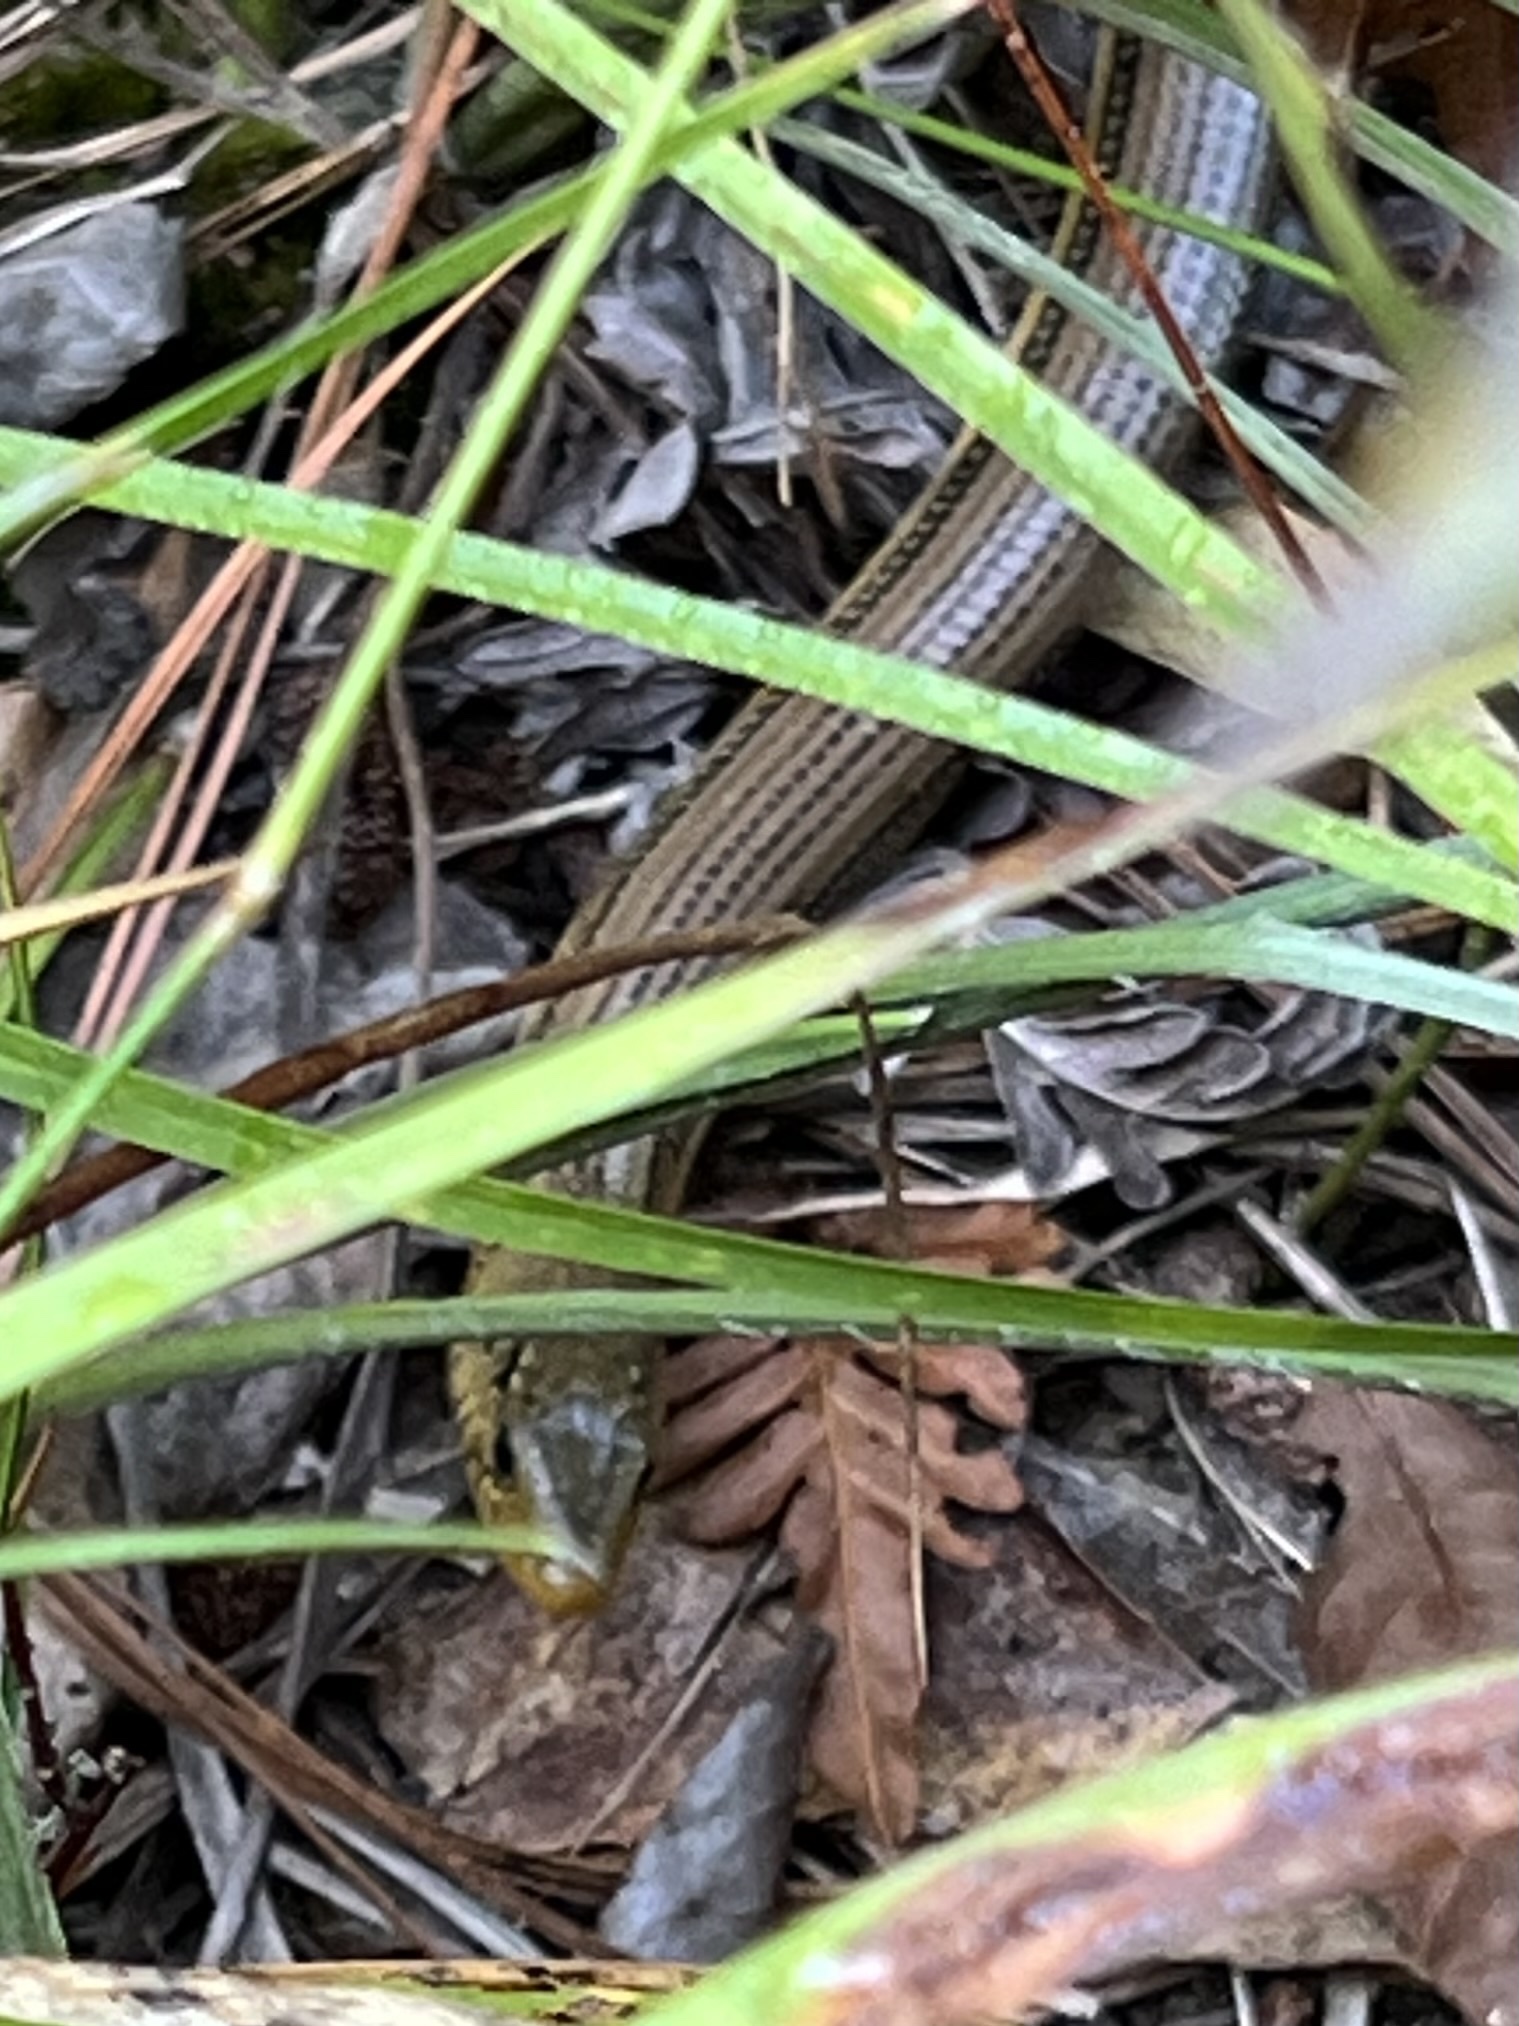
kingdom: Animalia
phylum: Chordata
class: Squamata
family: Anguidae
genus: Ophisaurus
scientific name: Ophisaurus ventralis
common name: Eastern glass lizard
